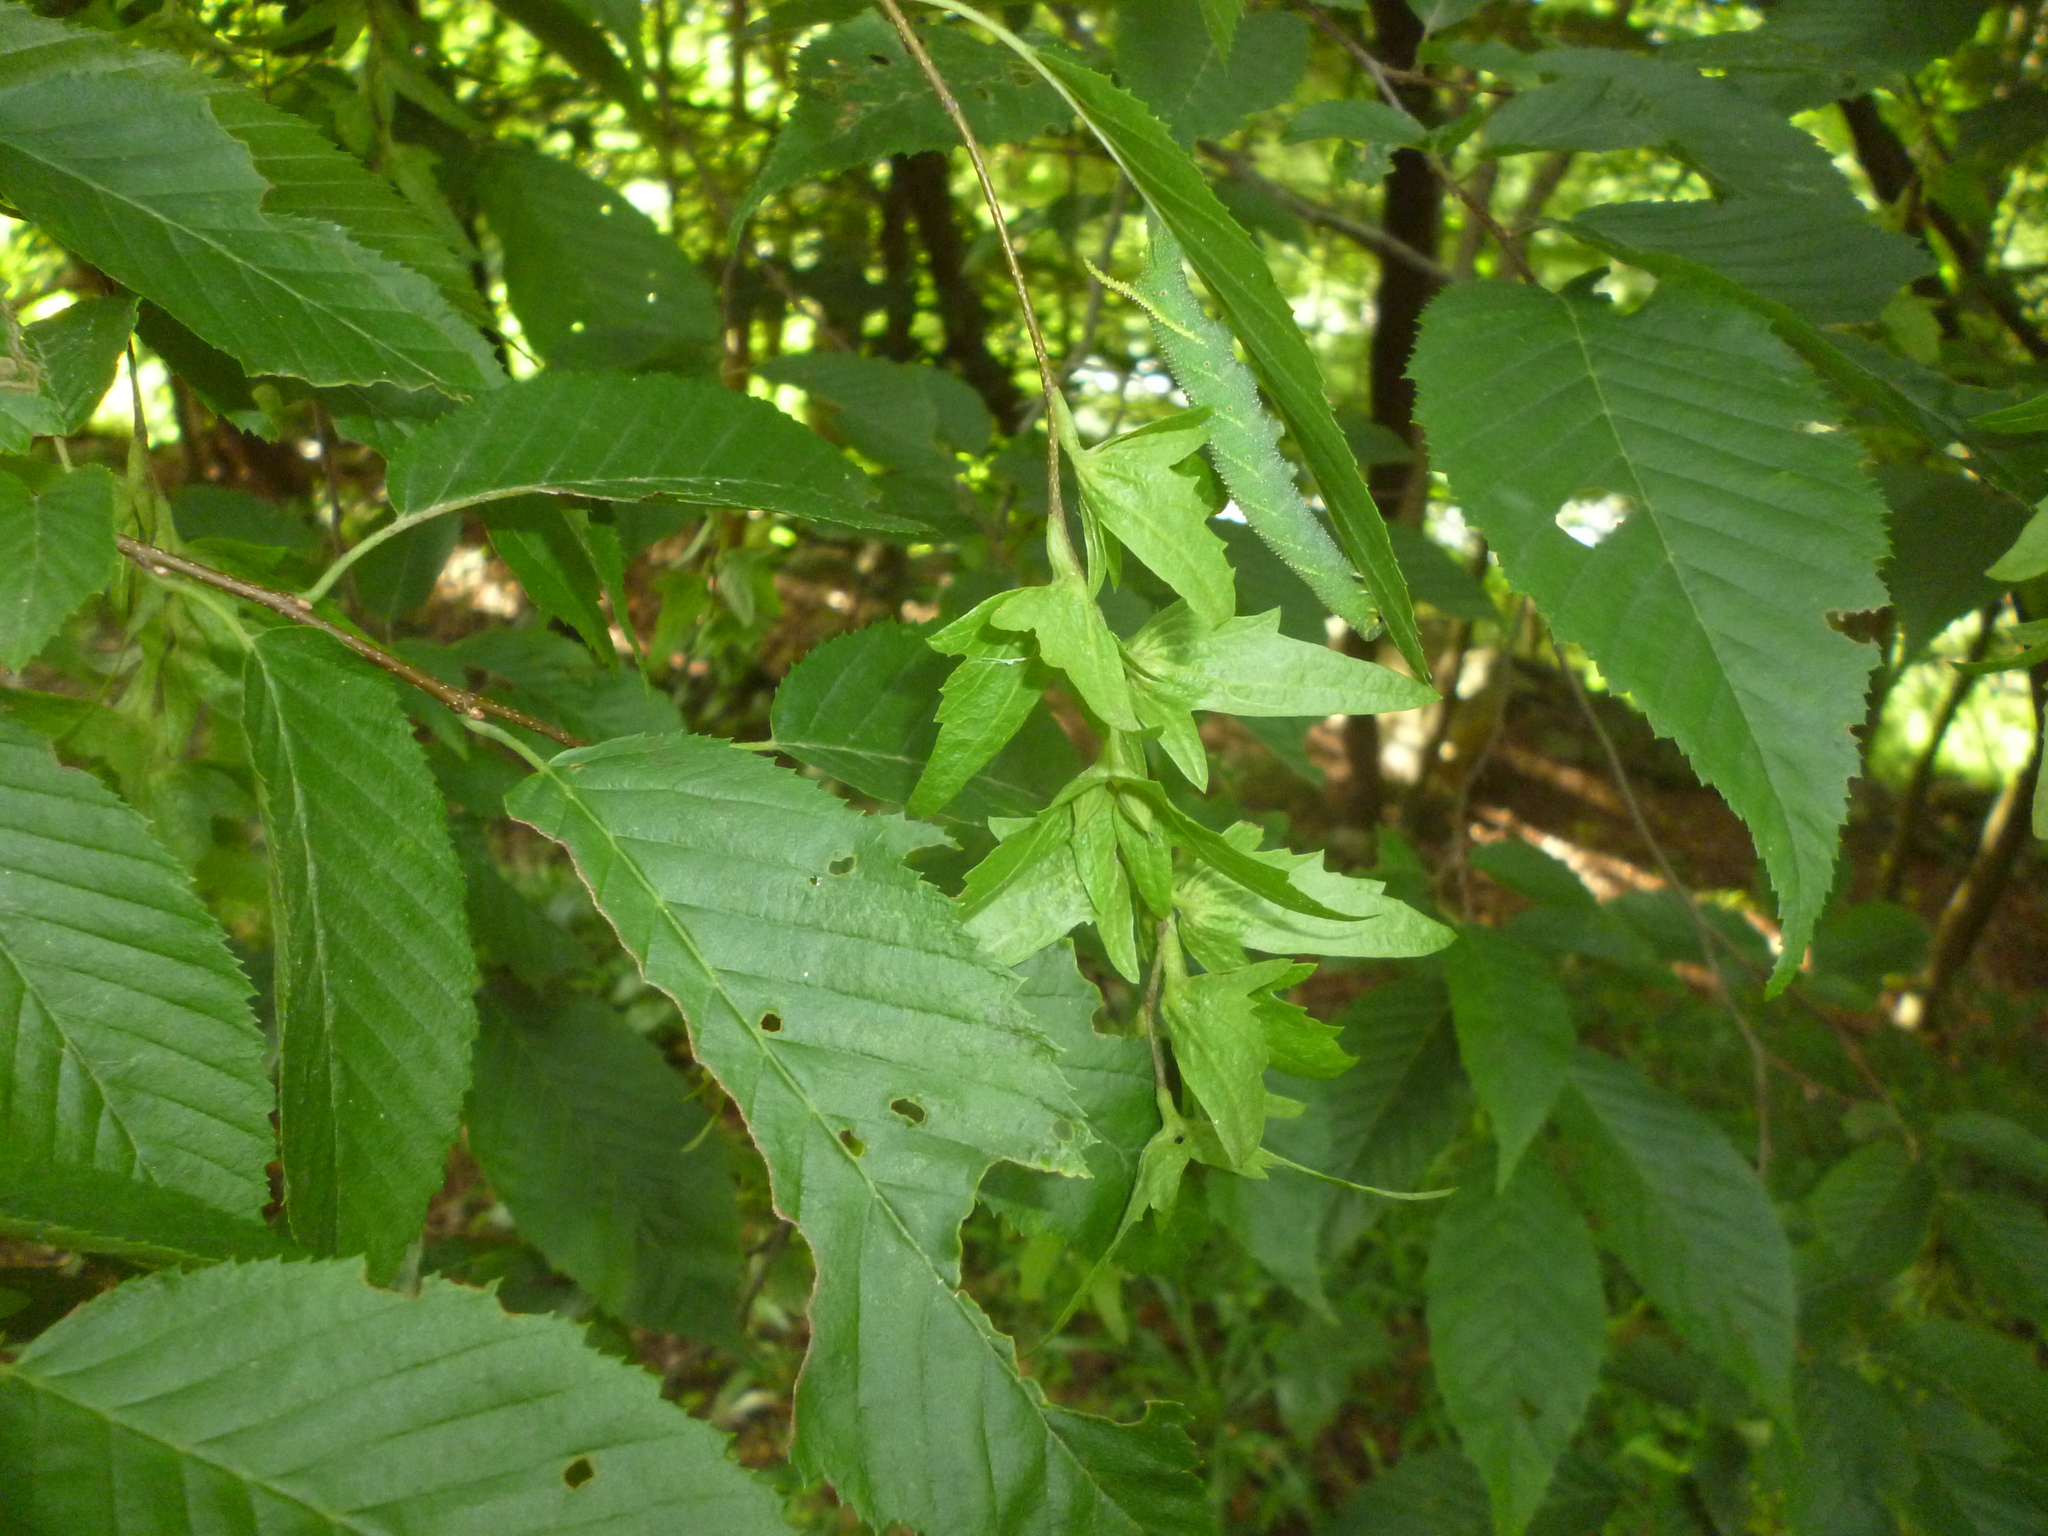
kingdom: Plantae
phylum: Tracheophyta
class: Magnoliopsida
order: Fagales
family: Betulaceae
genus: Carpinus
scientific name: Carpinus caroliniana
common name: American hornbeam
